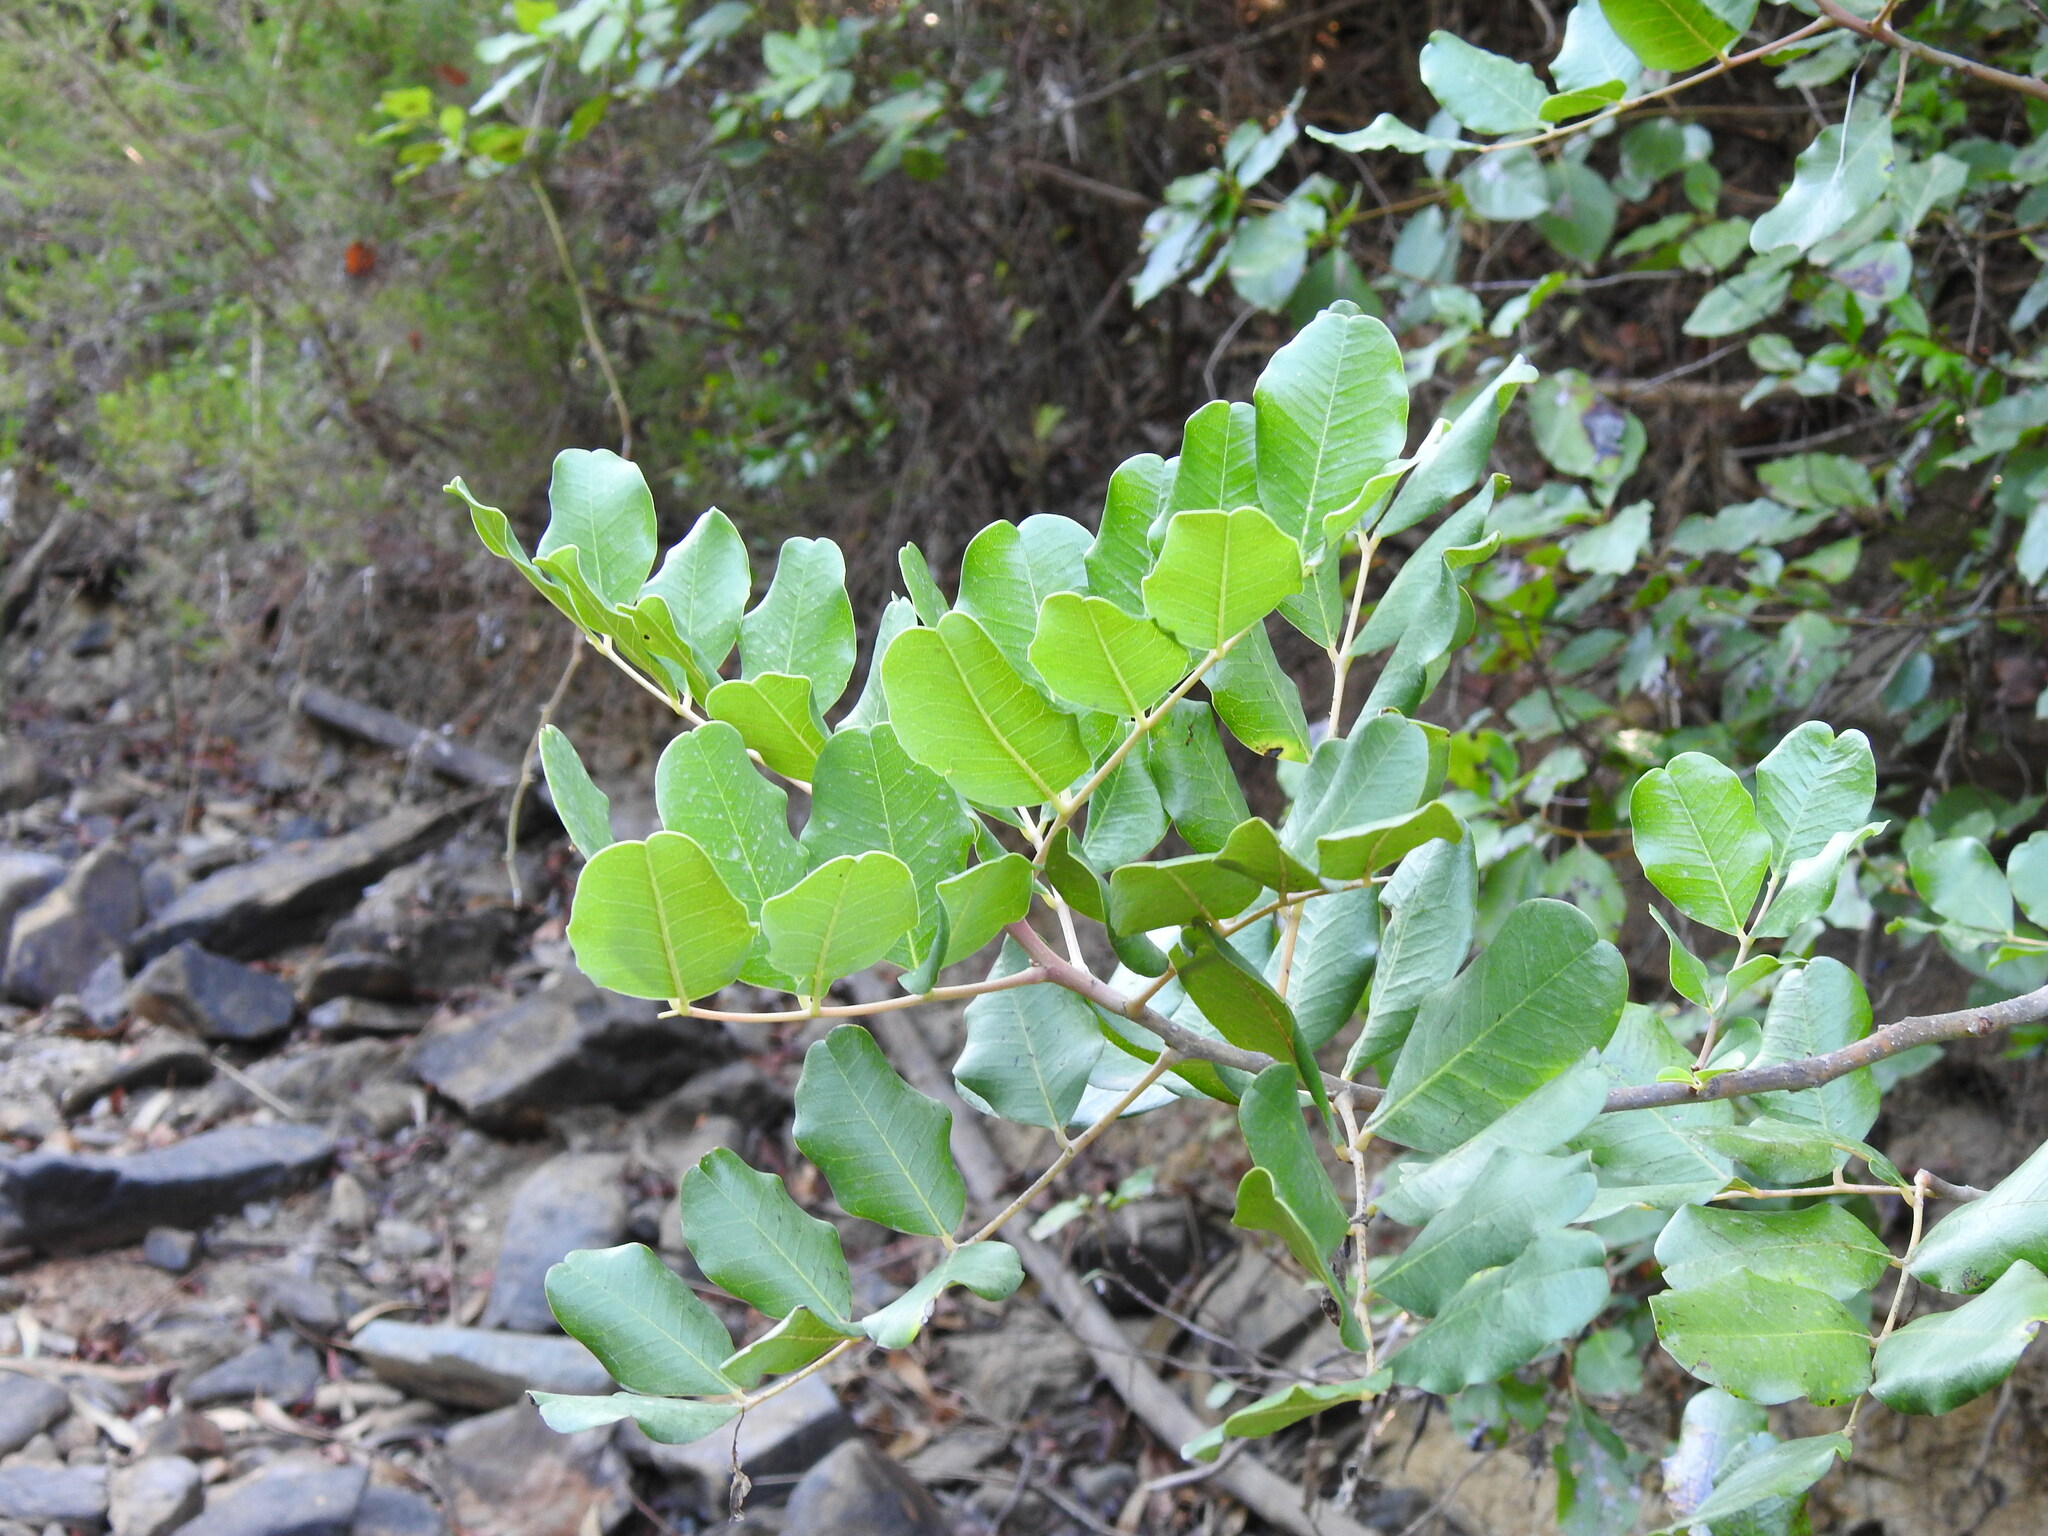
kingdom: Plantae
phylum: Tracheophyta
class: Magnoliopsida
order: Fabales
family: Fabaceae
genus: Ceratonia
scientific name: Ceratonia siliqua
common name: Carob
